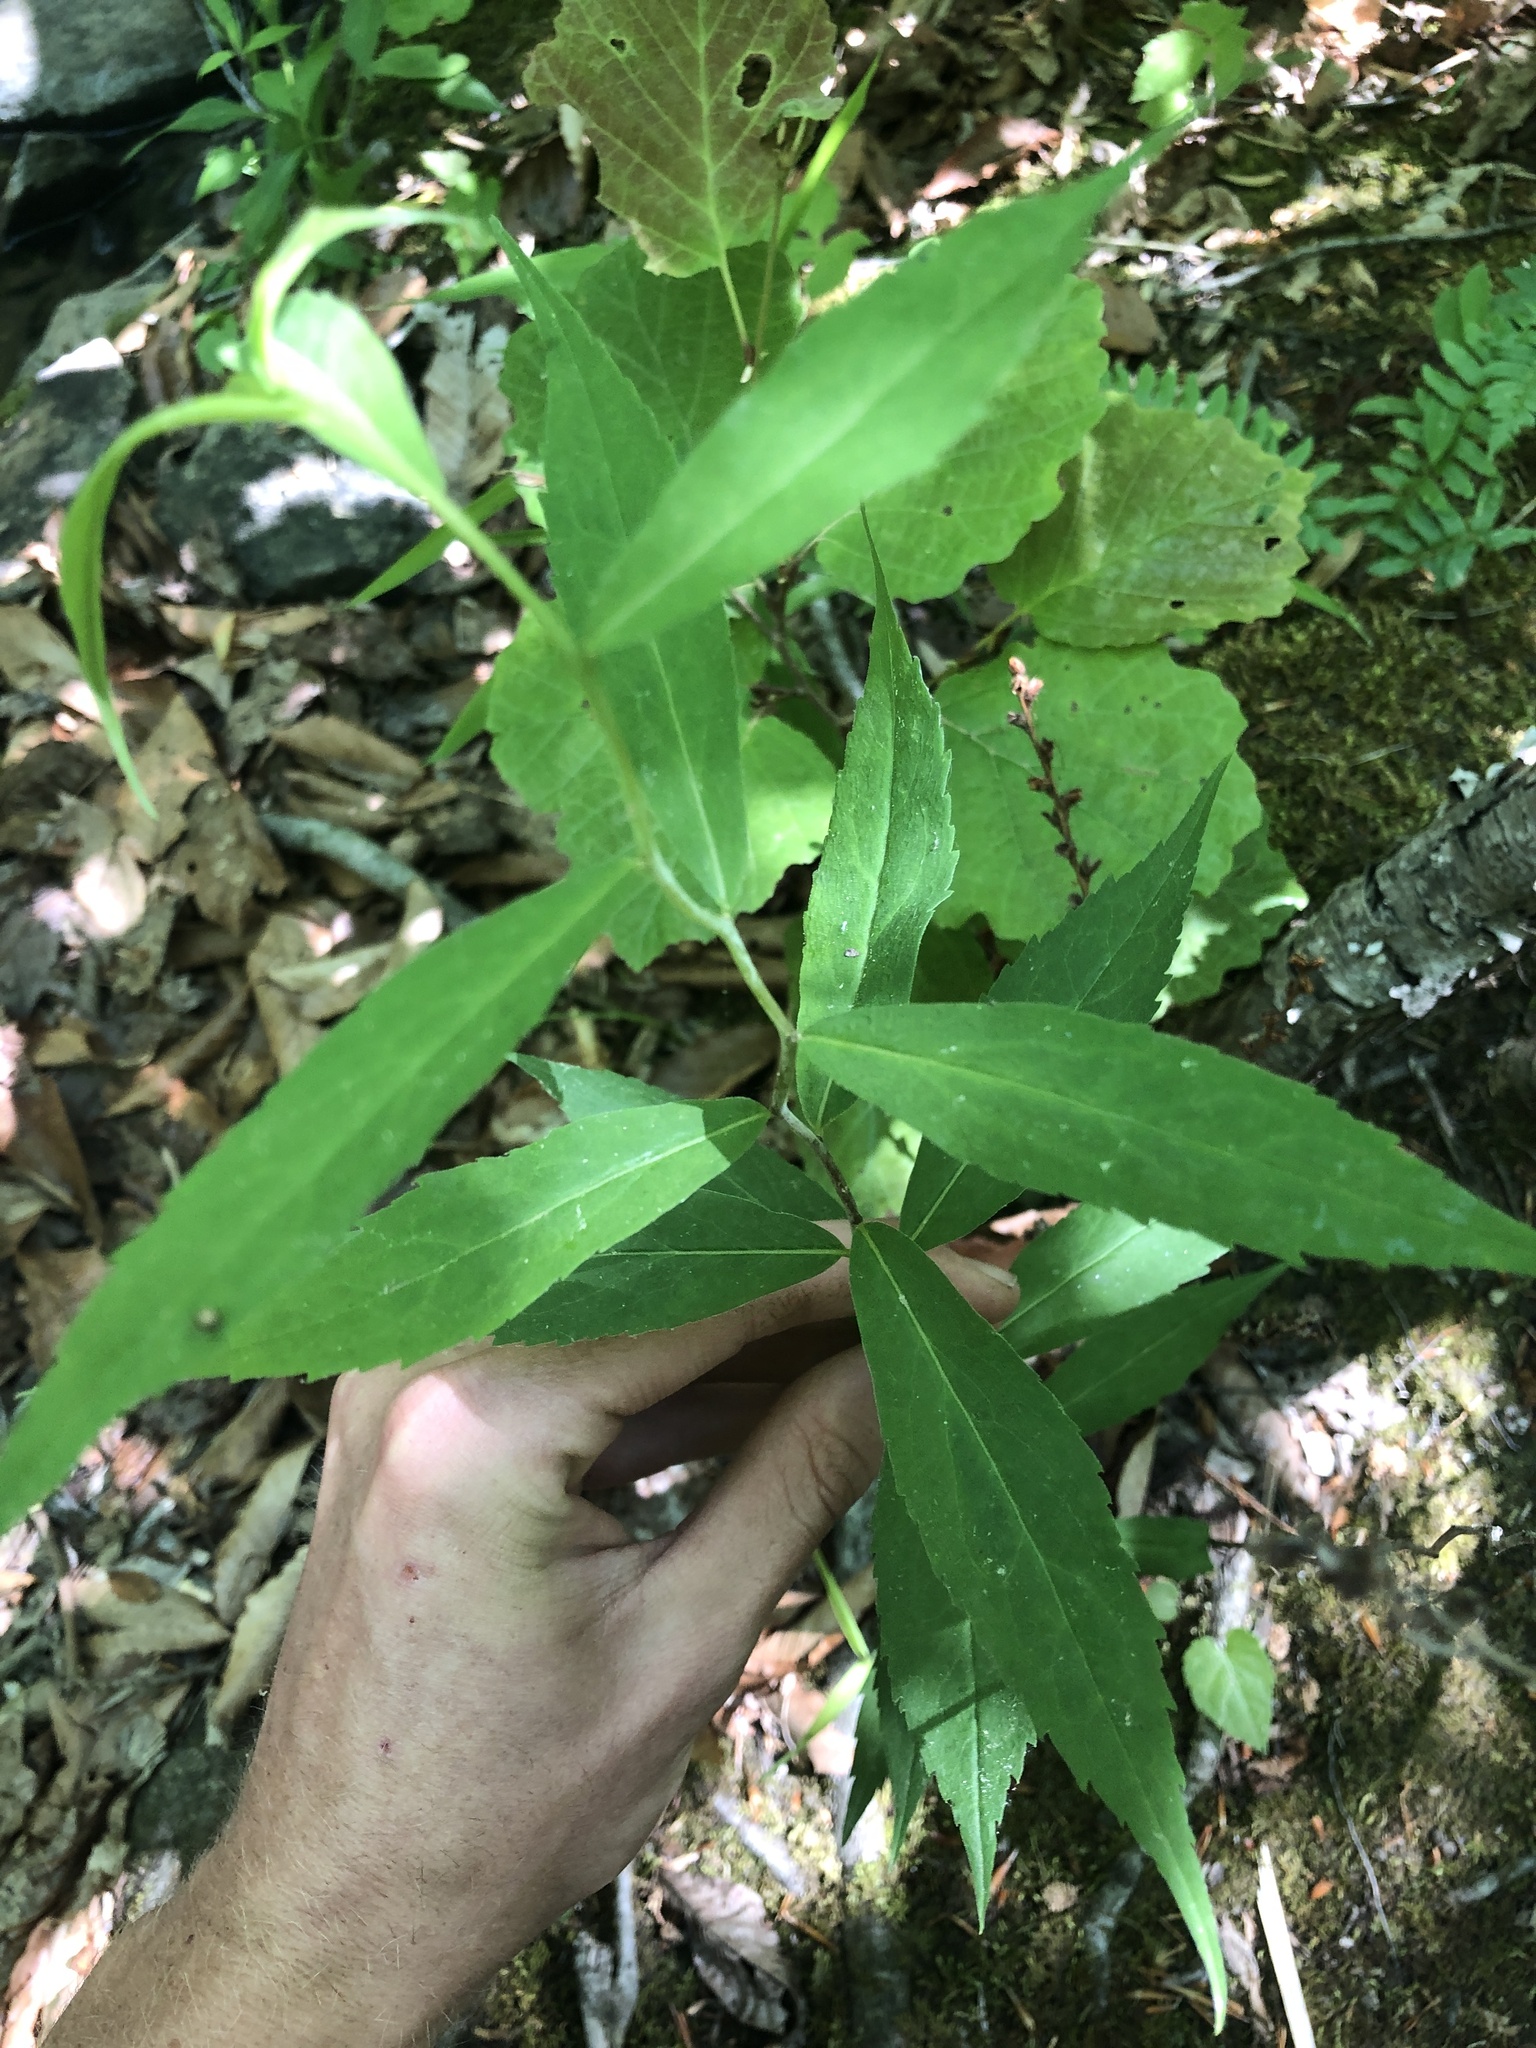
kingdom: Plantae
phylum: Tracheophyta
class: Magnoliopsida
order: Asterales
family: Asteraceae
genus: Solidago
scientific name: Solidago caesia
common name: Woodland goldenrod
